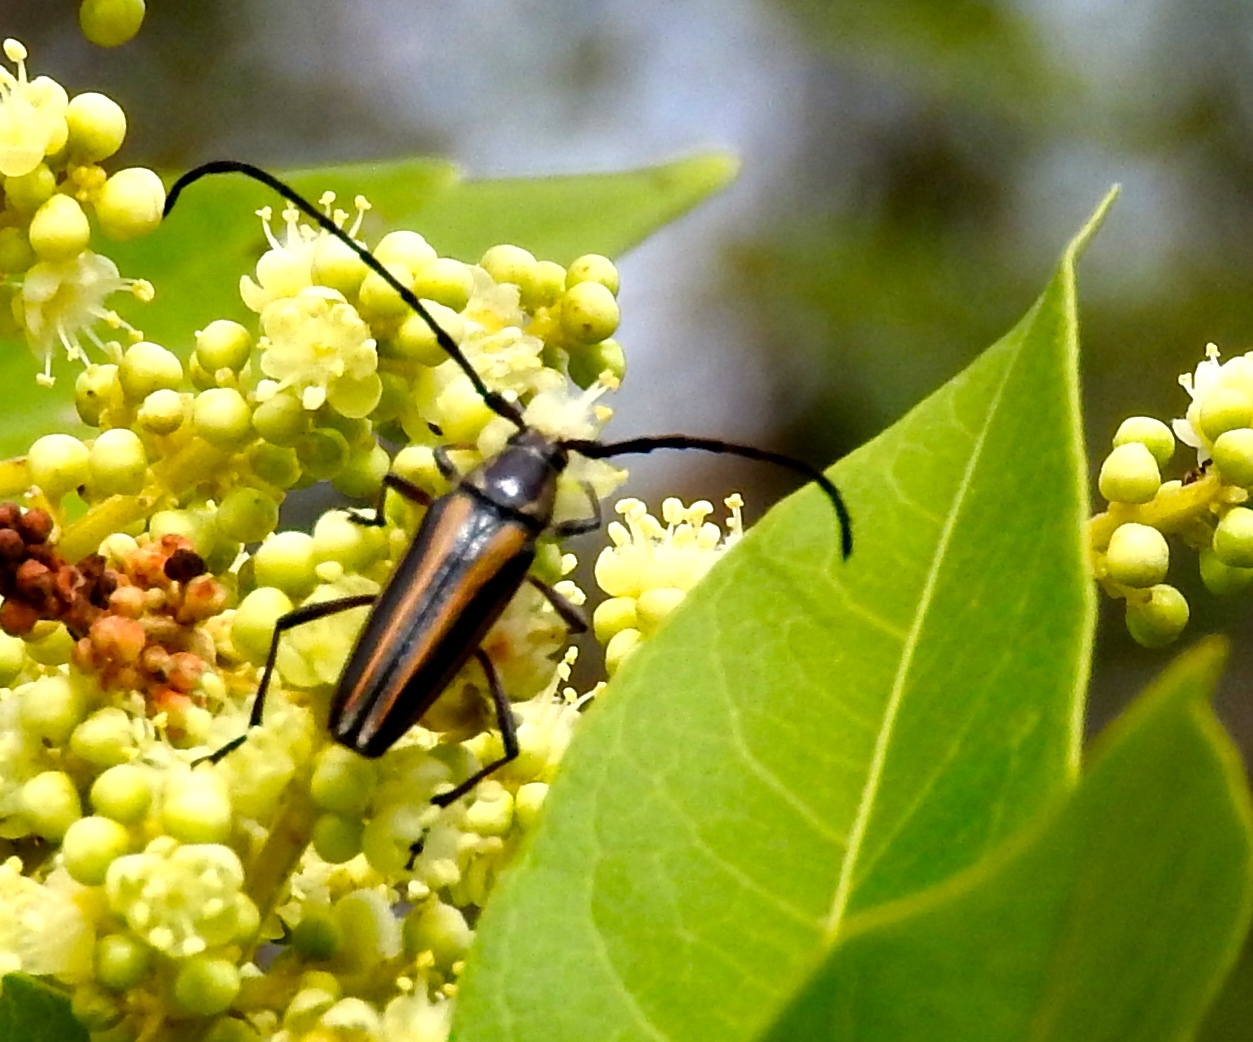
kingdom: Animalia
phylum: Arthropoda
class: Insecta
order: Coleoptera
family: Cerambycidae
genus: Sphaenothecus
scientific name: Sphaenothecus
